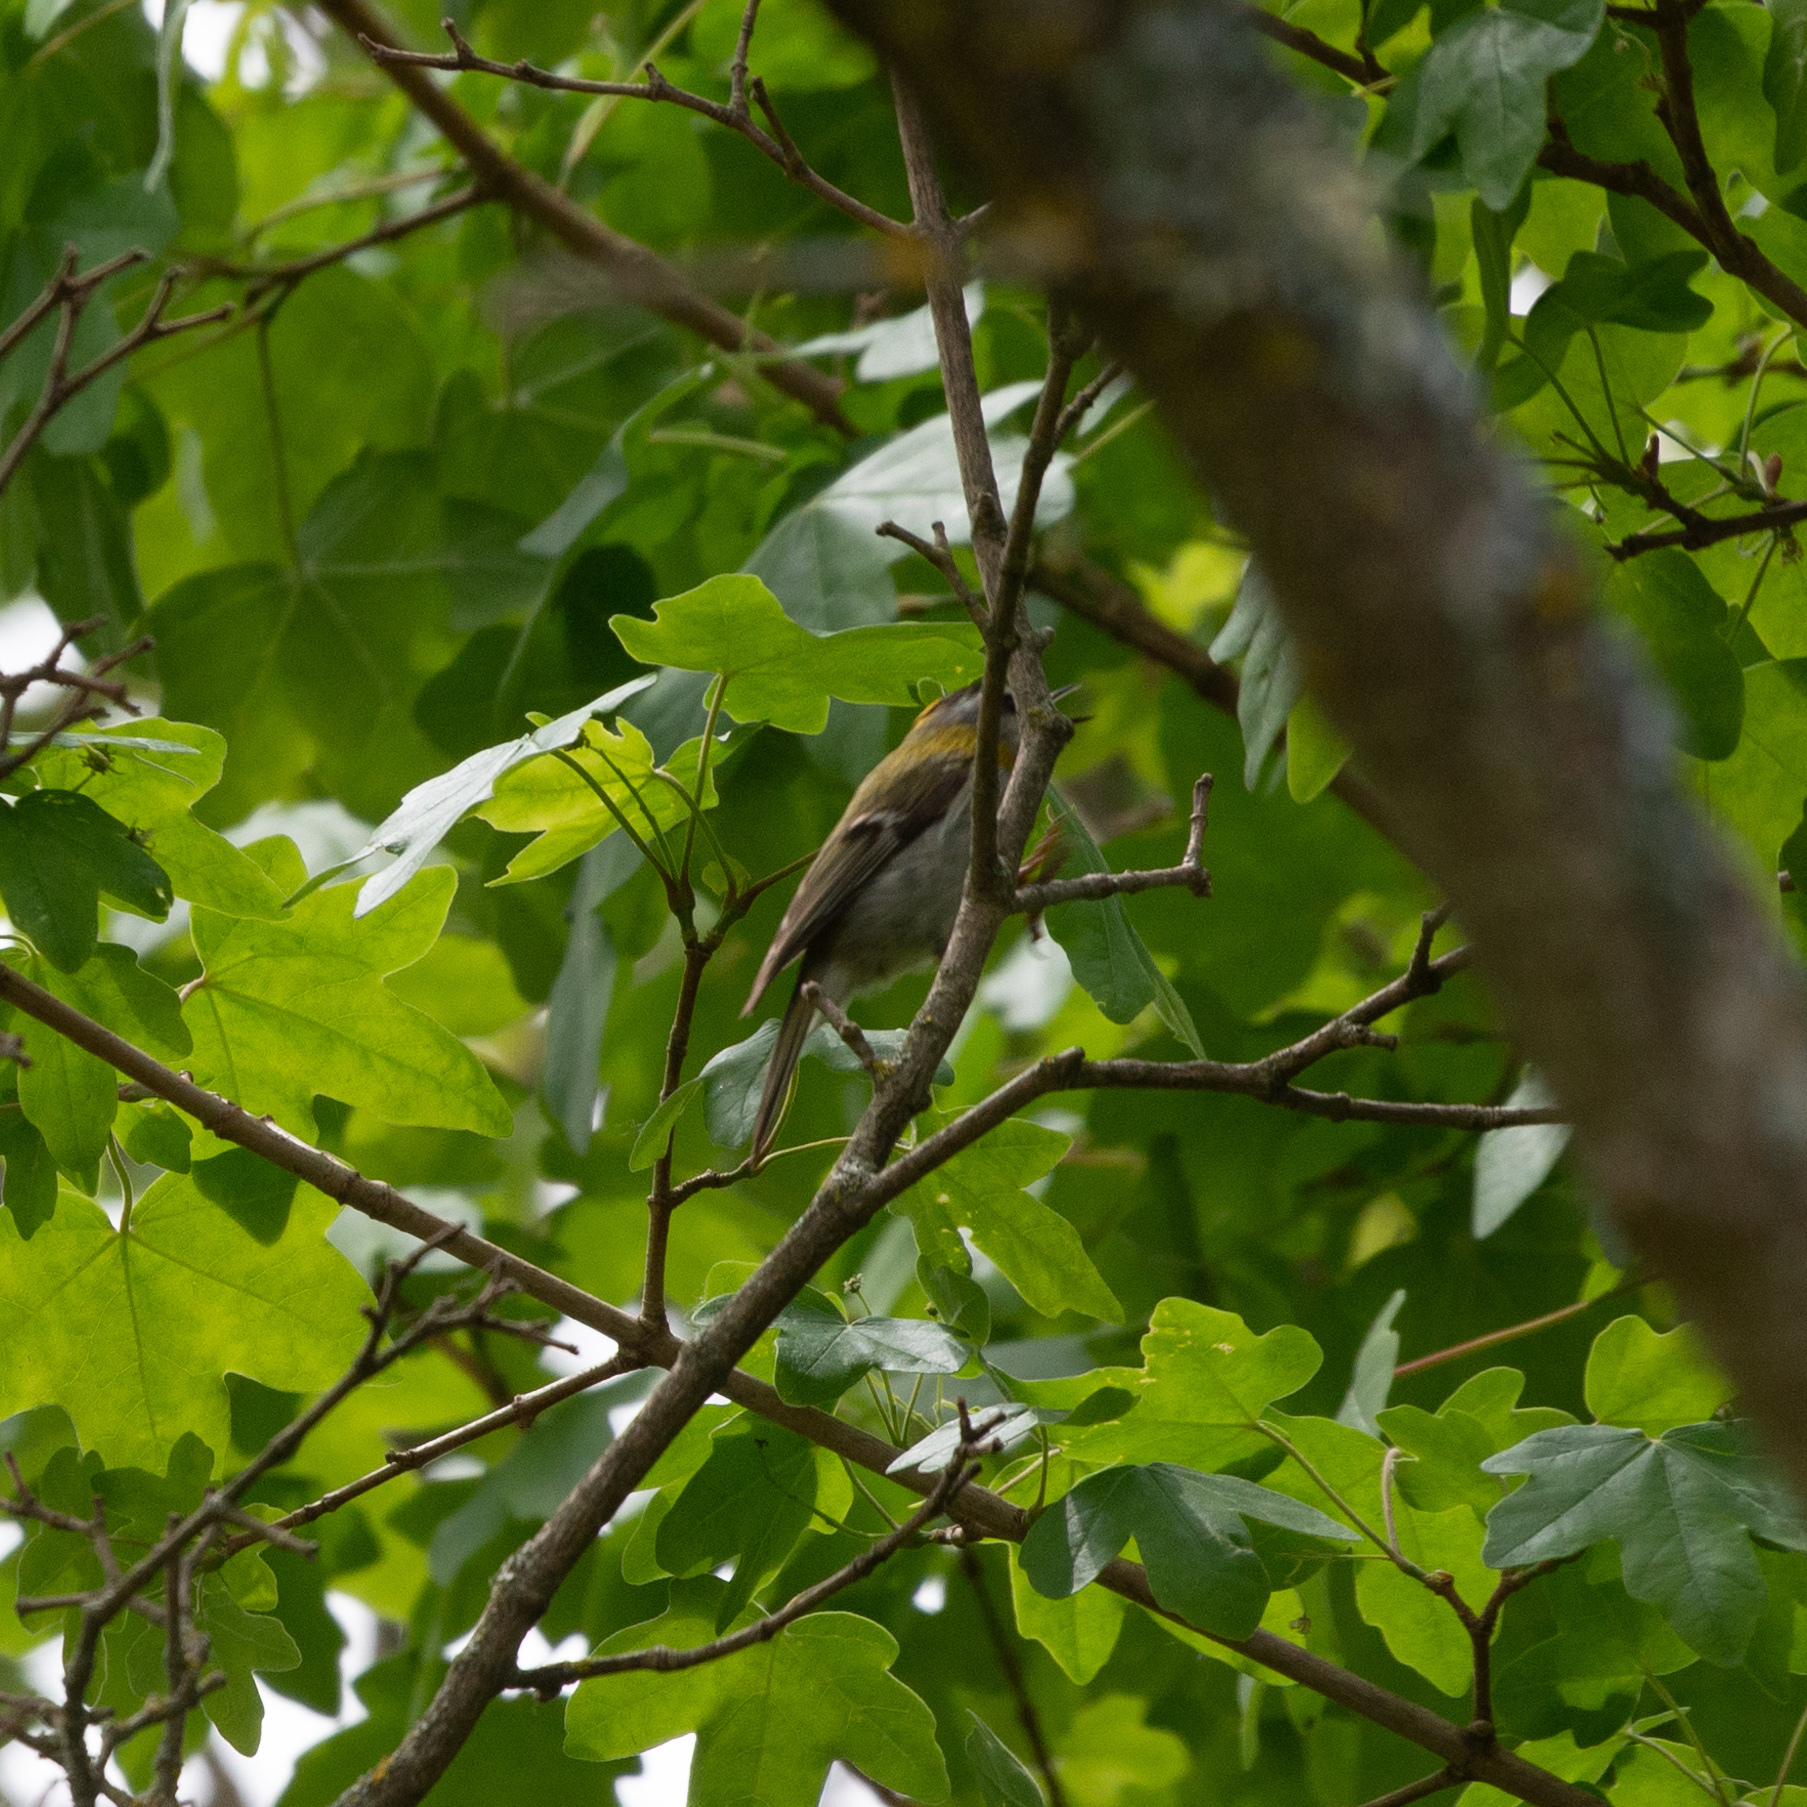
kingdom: Animalia
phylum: Chordata
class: Aves
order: Passeriformes
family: Regulidae
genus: Regulus
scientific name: Regulus ignicapilla
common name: Firecrest
